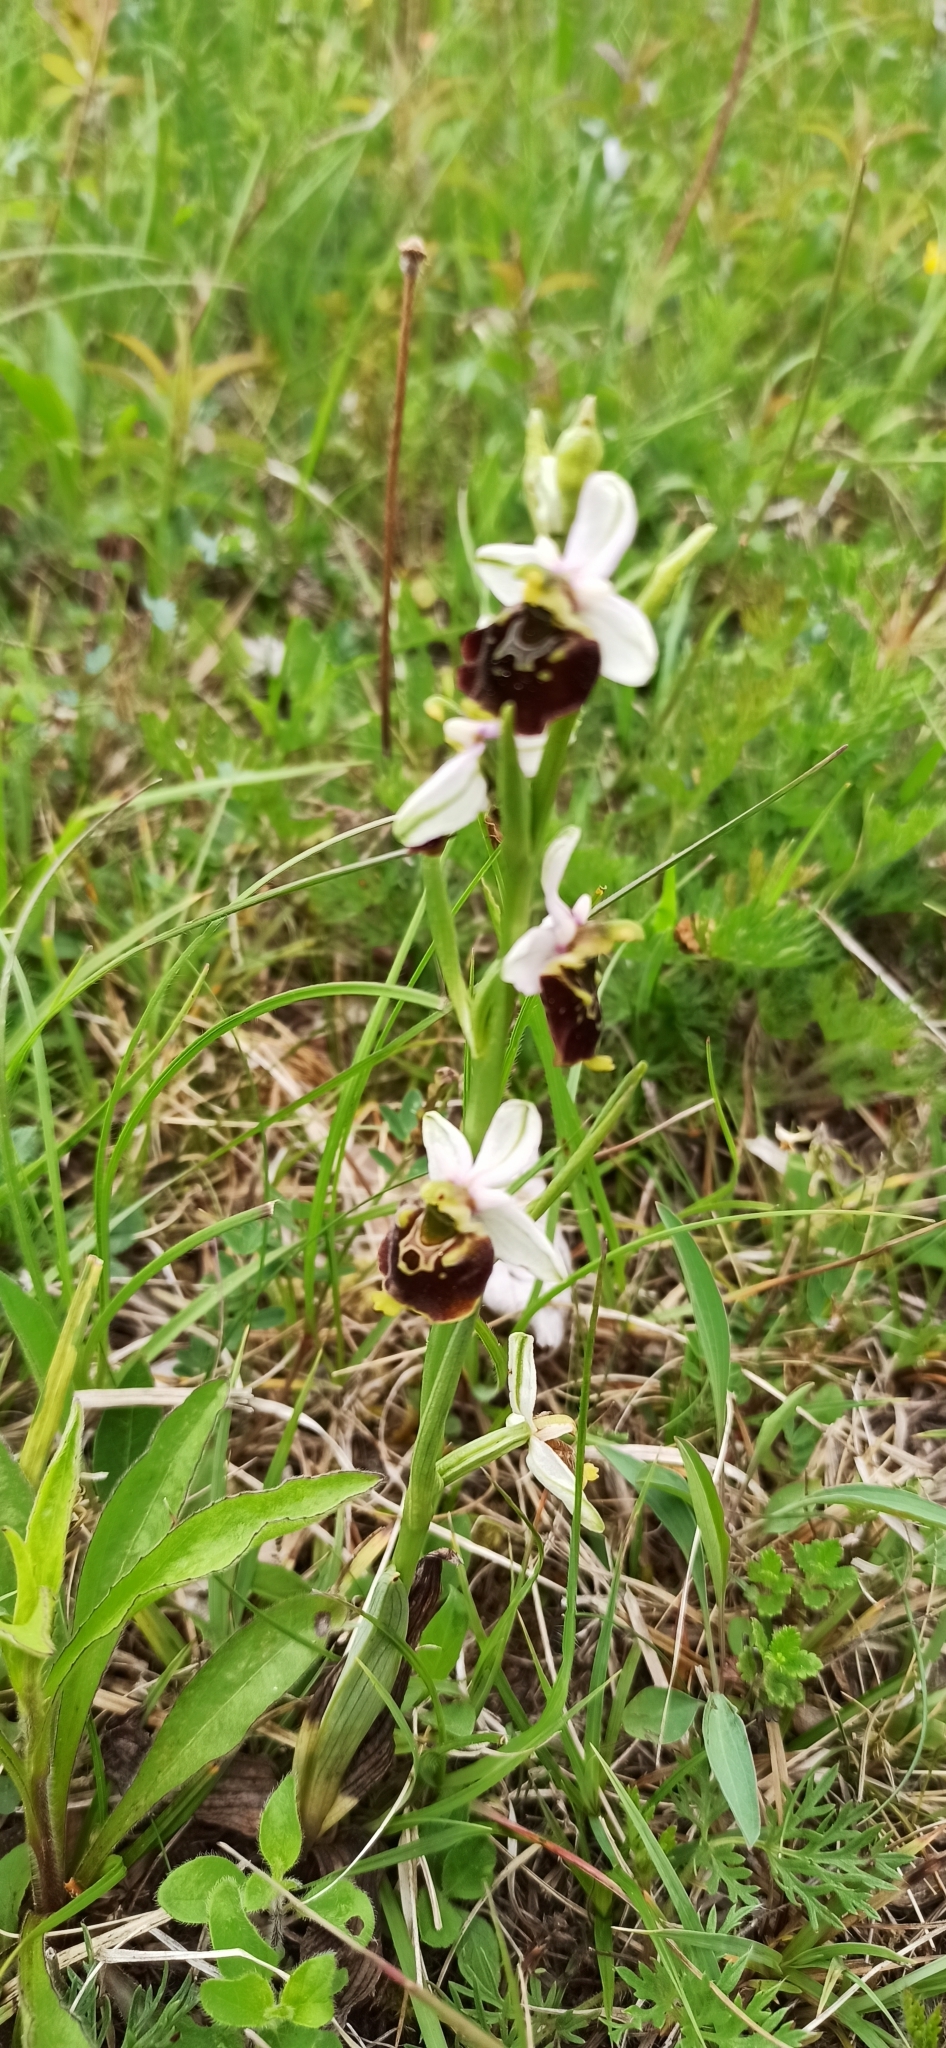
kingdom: Plantae
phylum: Tracheophyta
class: Liliopsida
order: Asparagales
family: Orchidaceae
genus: Ophrys
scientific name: Ophrys holosericea
